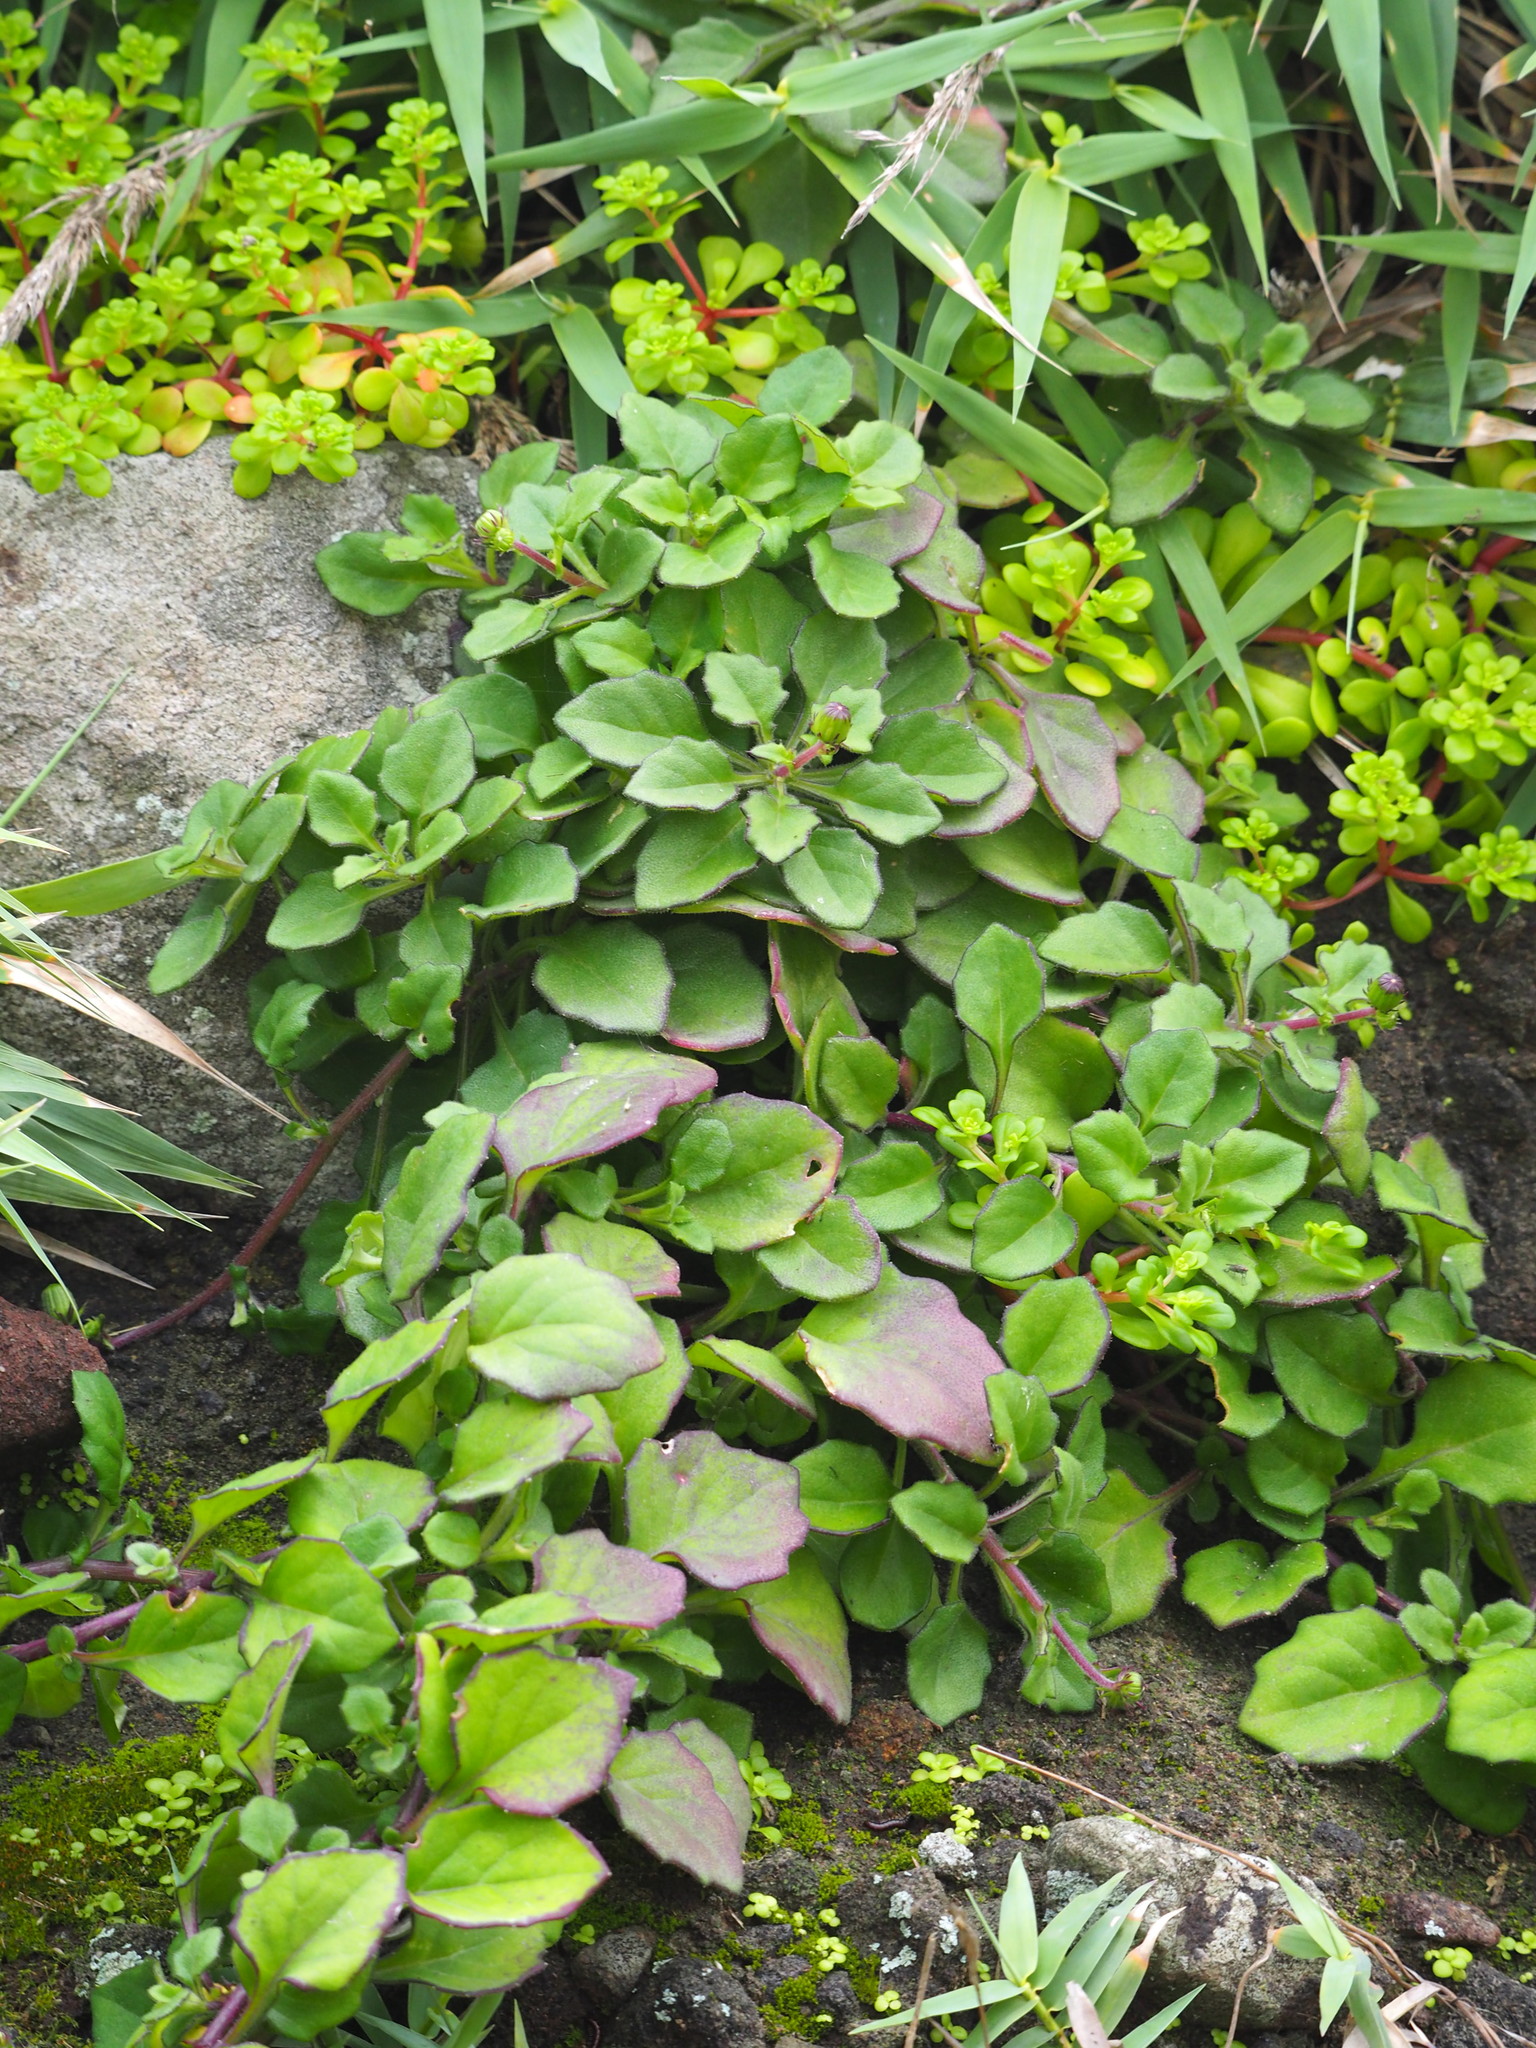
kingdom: Plantae
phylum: Tracheophyta
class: Magnoliopsida
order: Asterales
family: Asteraceae
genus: Gynura
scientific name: Gynura formosana
